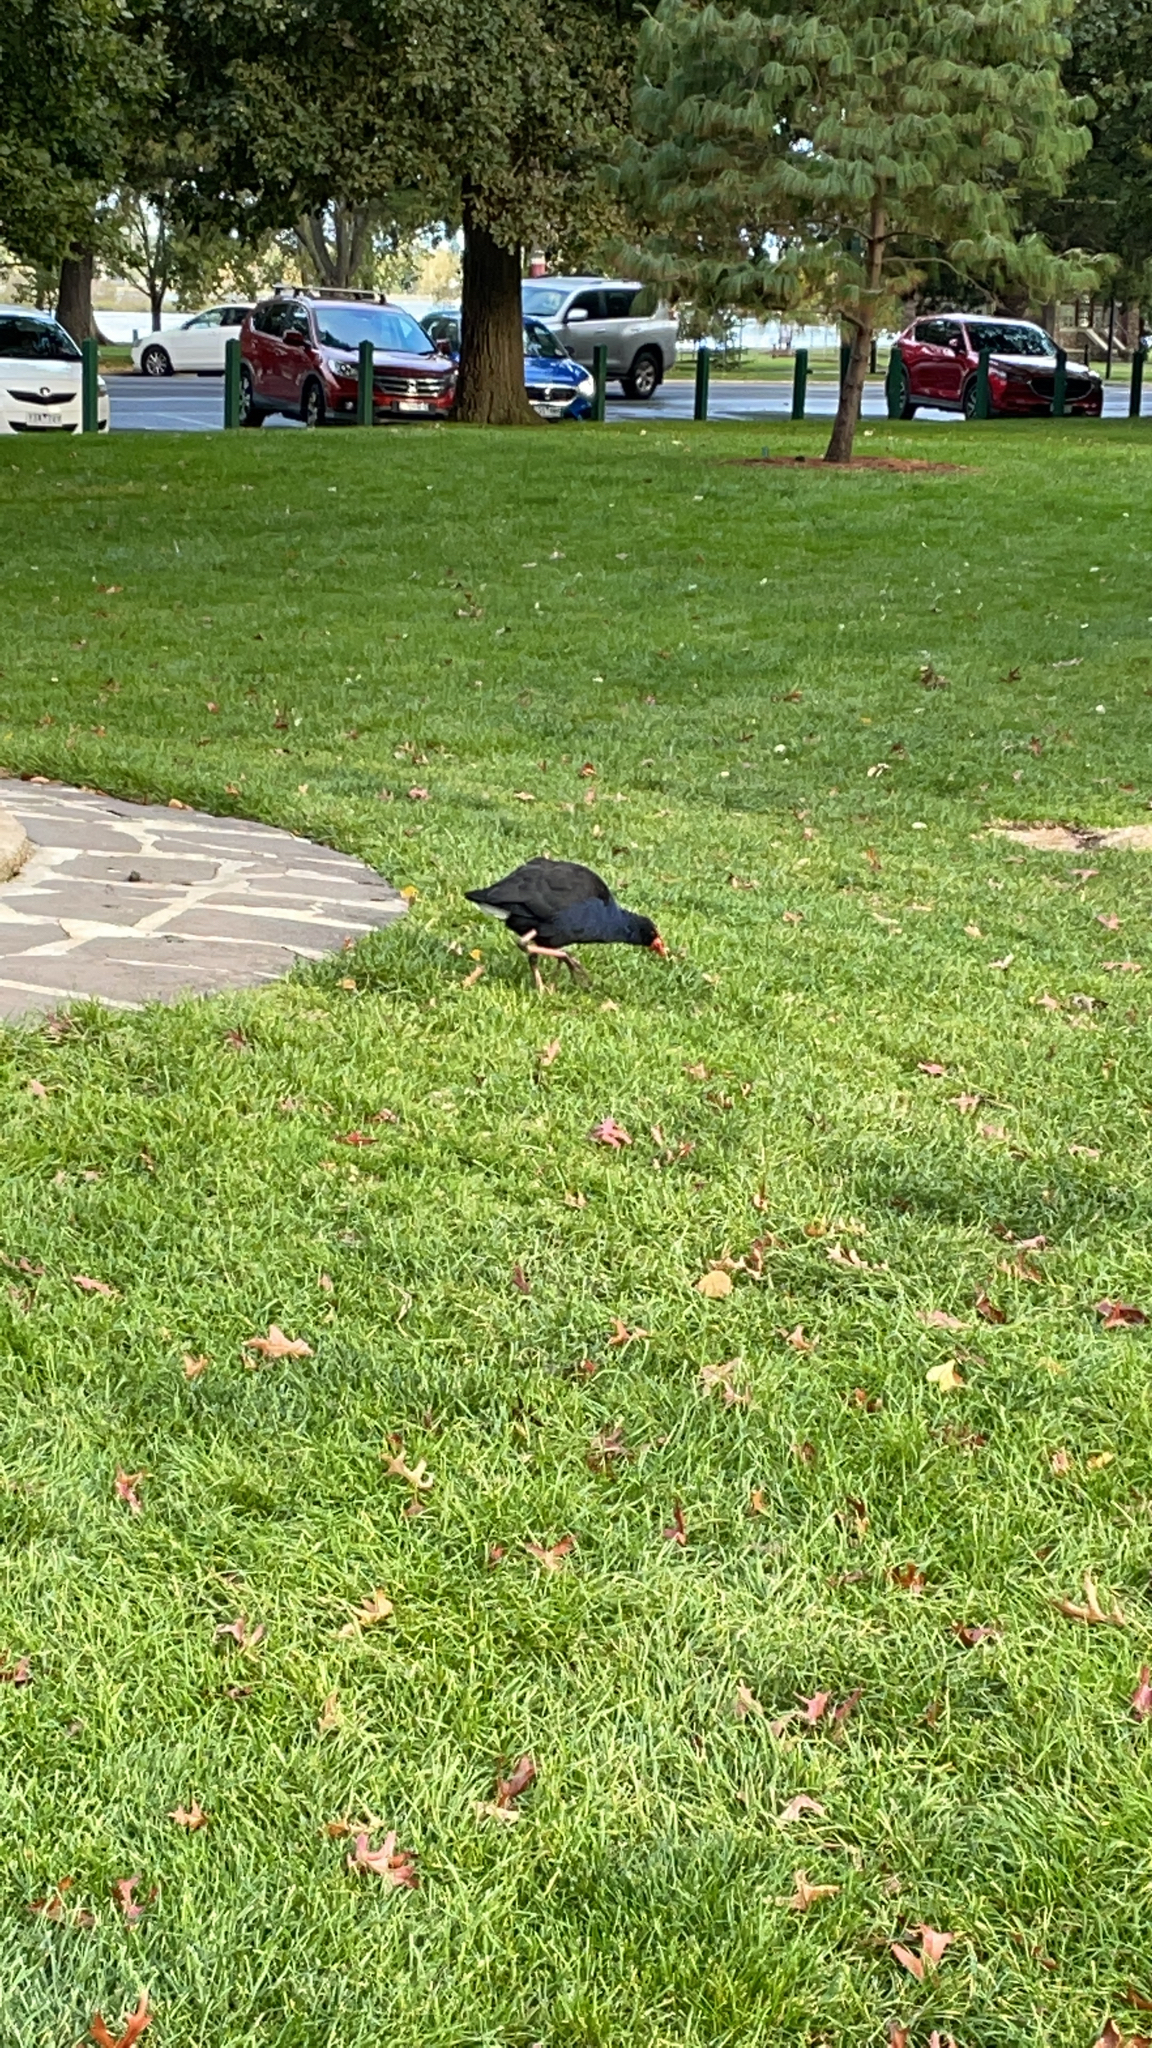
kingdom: Animalia
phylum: Chordata
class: Aves
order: Gruiformes
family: Rallidae
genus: Porphyrio
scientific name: Porphyrio melanotus
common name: Australasian swamphen
